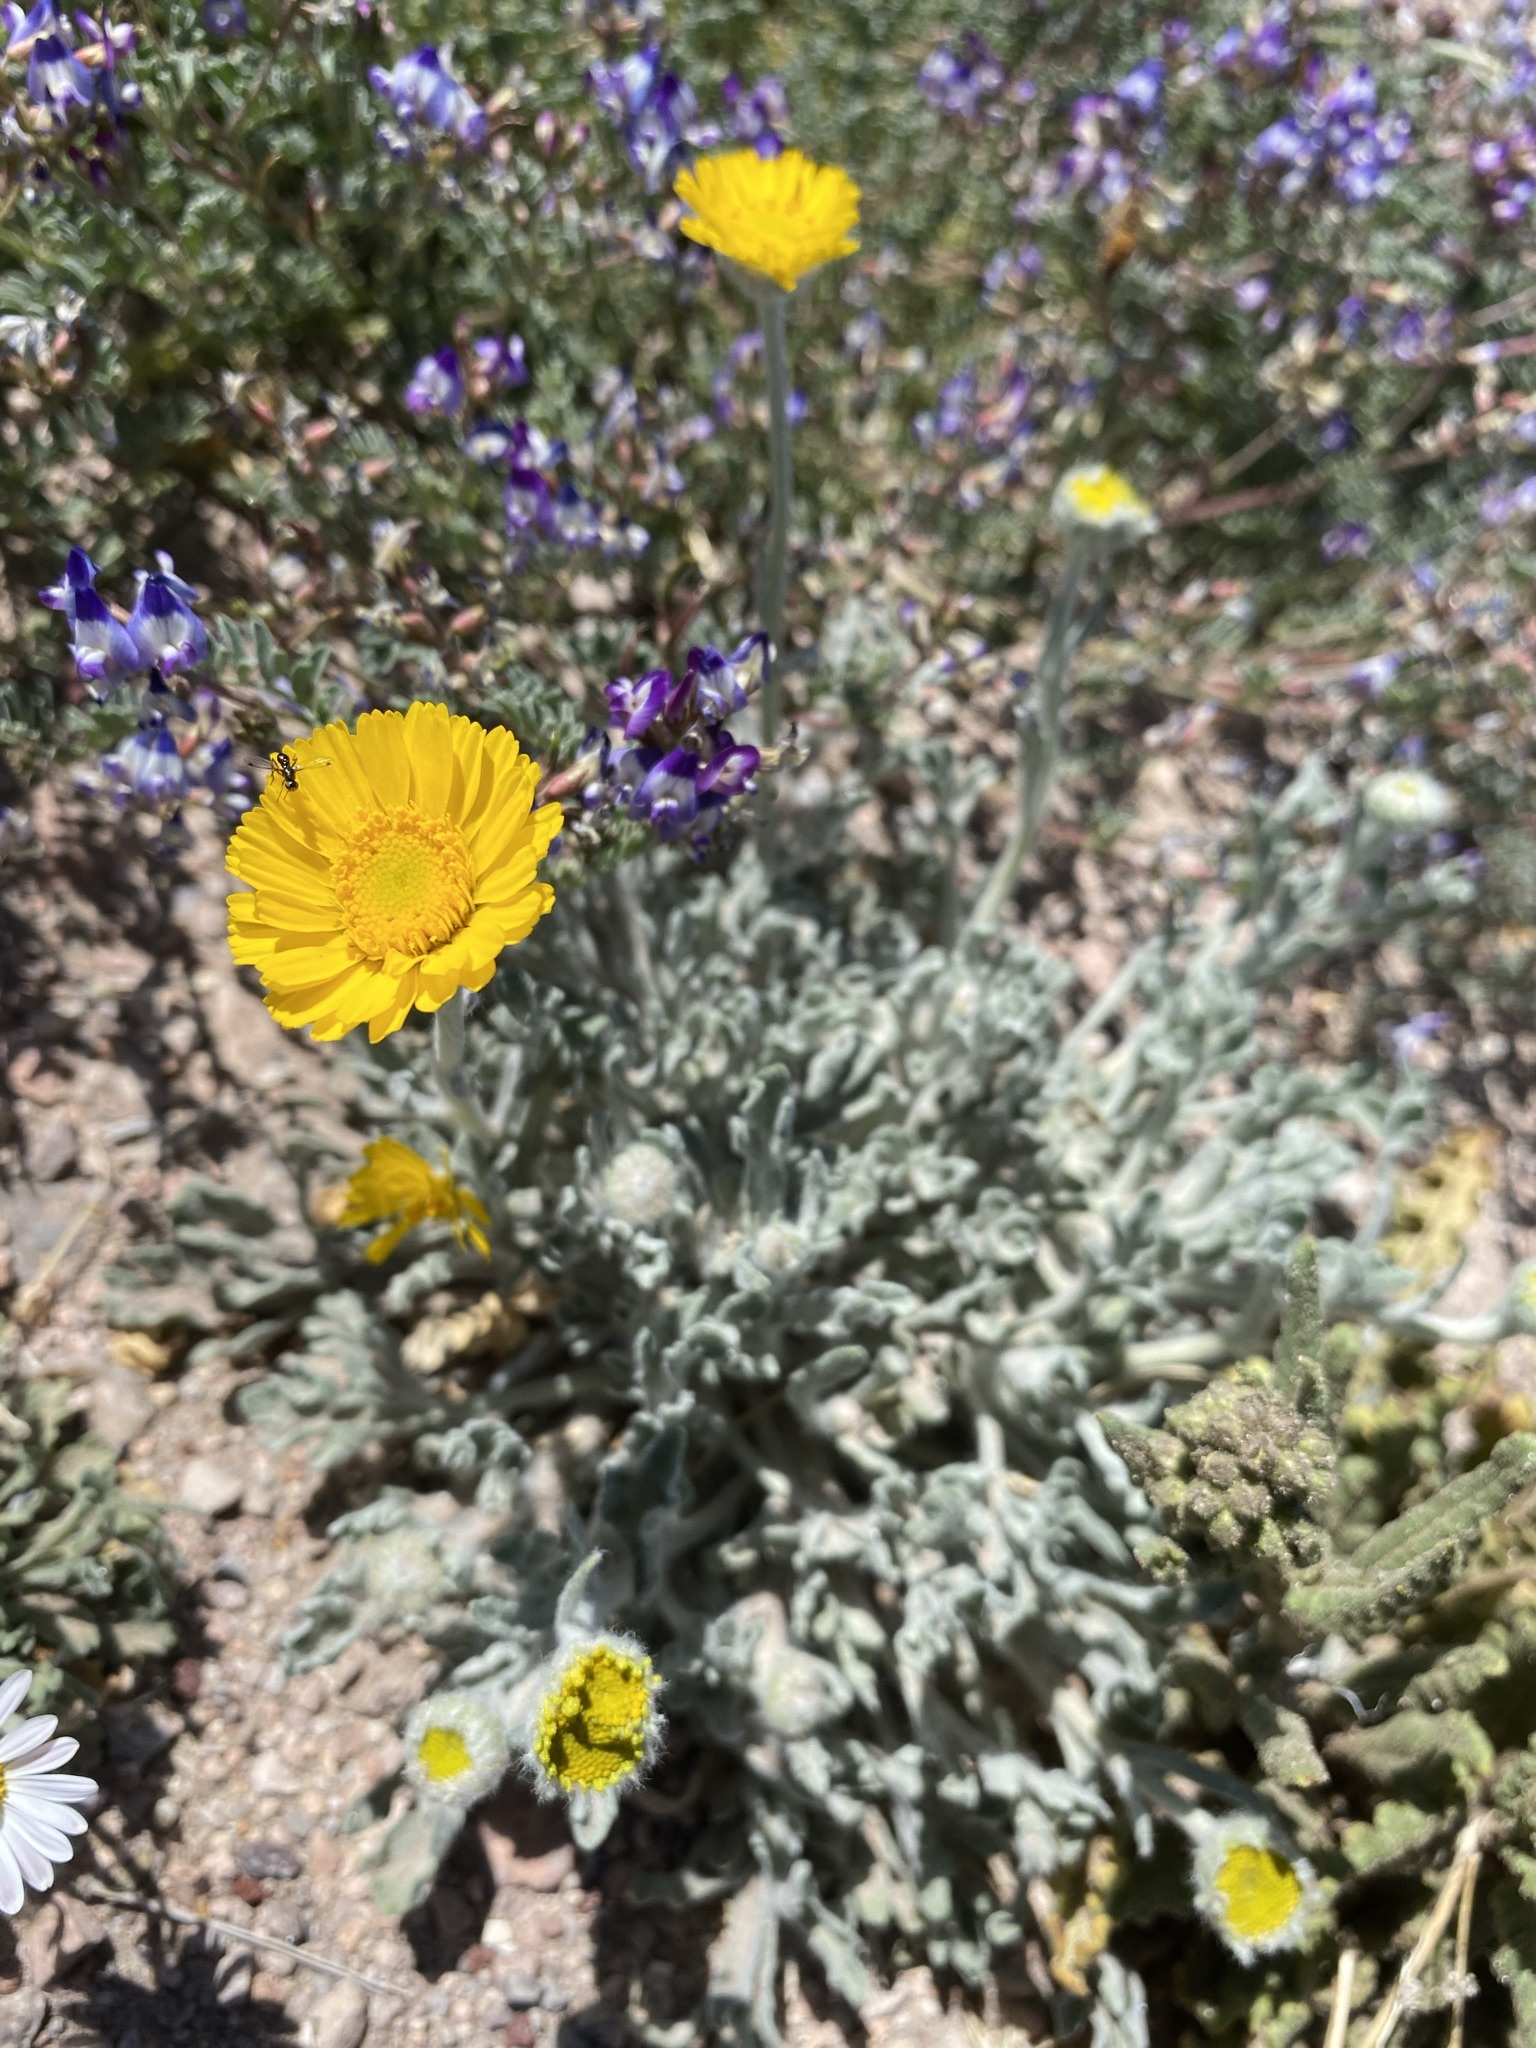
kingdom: Plantae
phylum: Tracheophyta
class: Magnoliopsida
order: Asterales
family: Asteraceae
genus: Baileya
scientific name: Baileya multiradiata
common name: Desert-marigold
